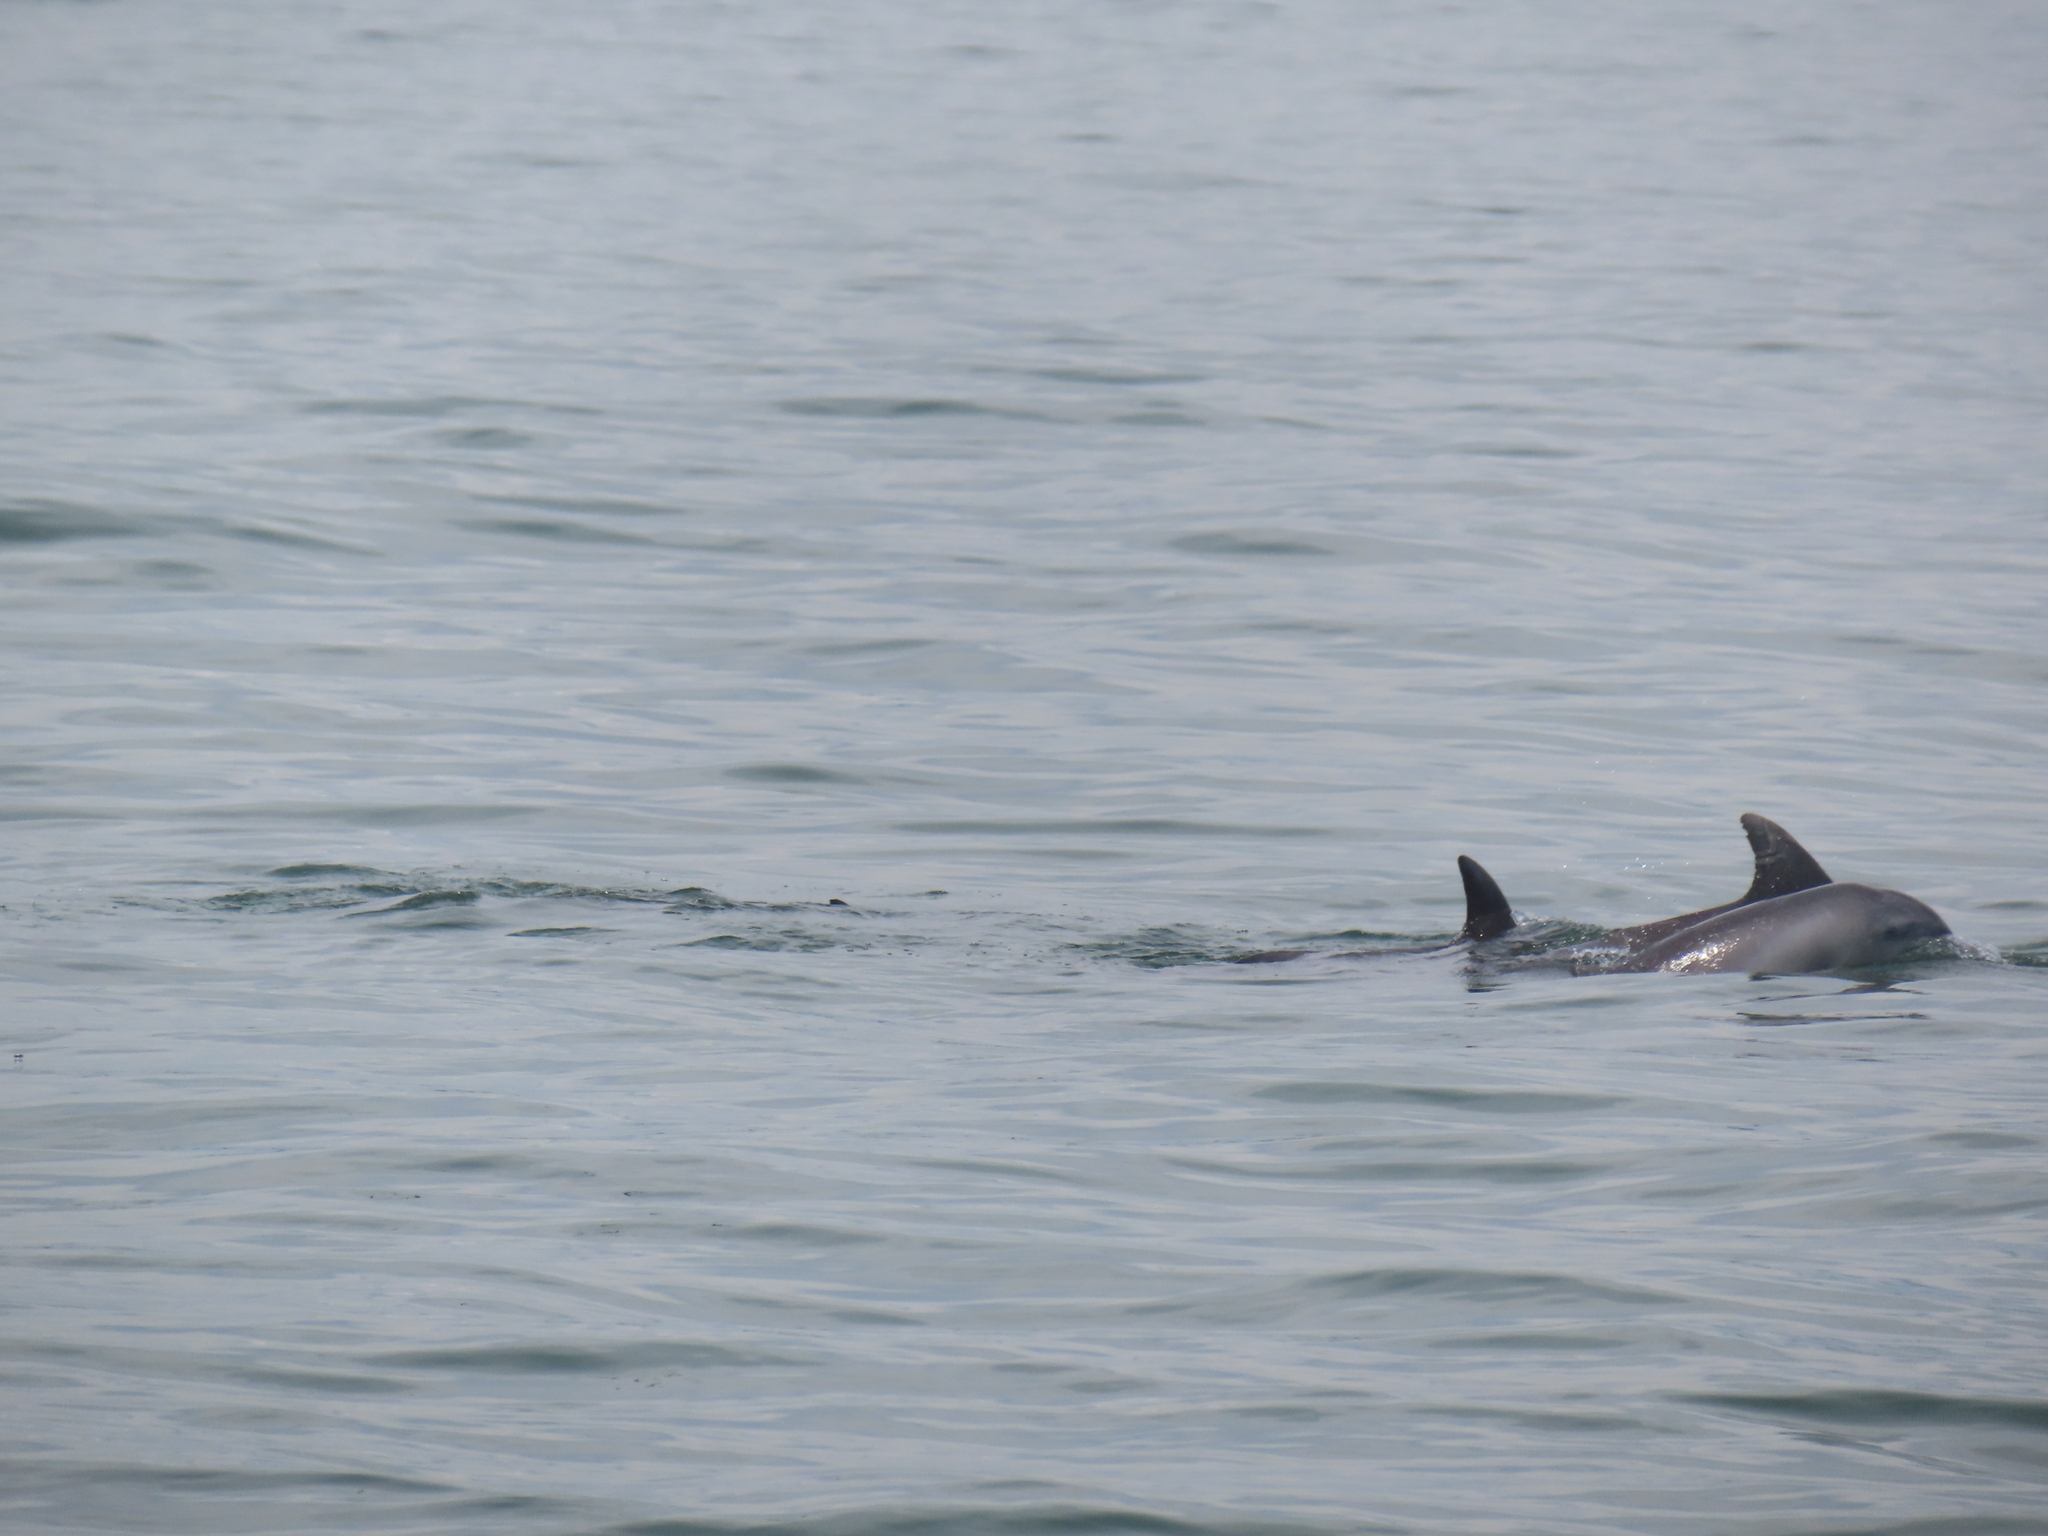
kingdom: Animalia
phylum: Chordata
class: Mammalia
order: Cetacea
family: Delphinidae
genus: Tursiops
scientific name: Tursiops truncatus
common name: Bottlenose dolphin
